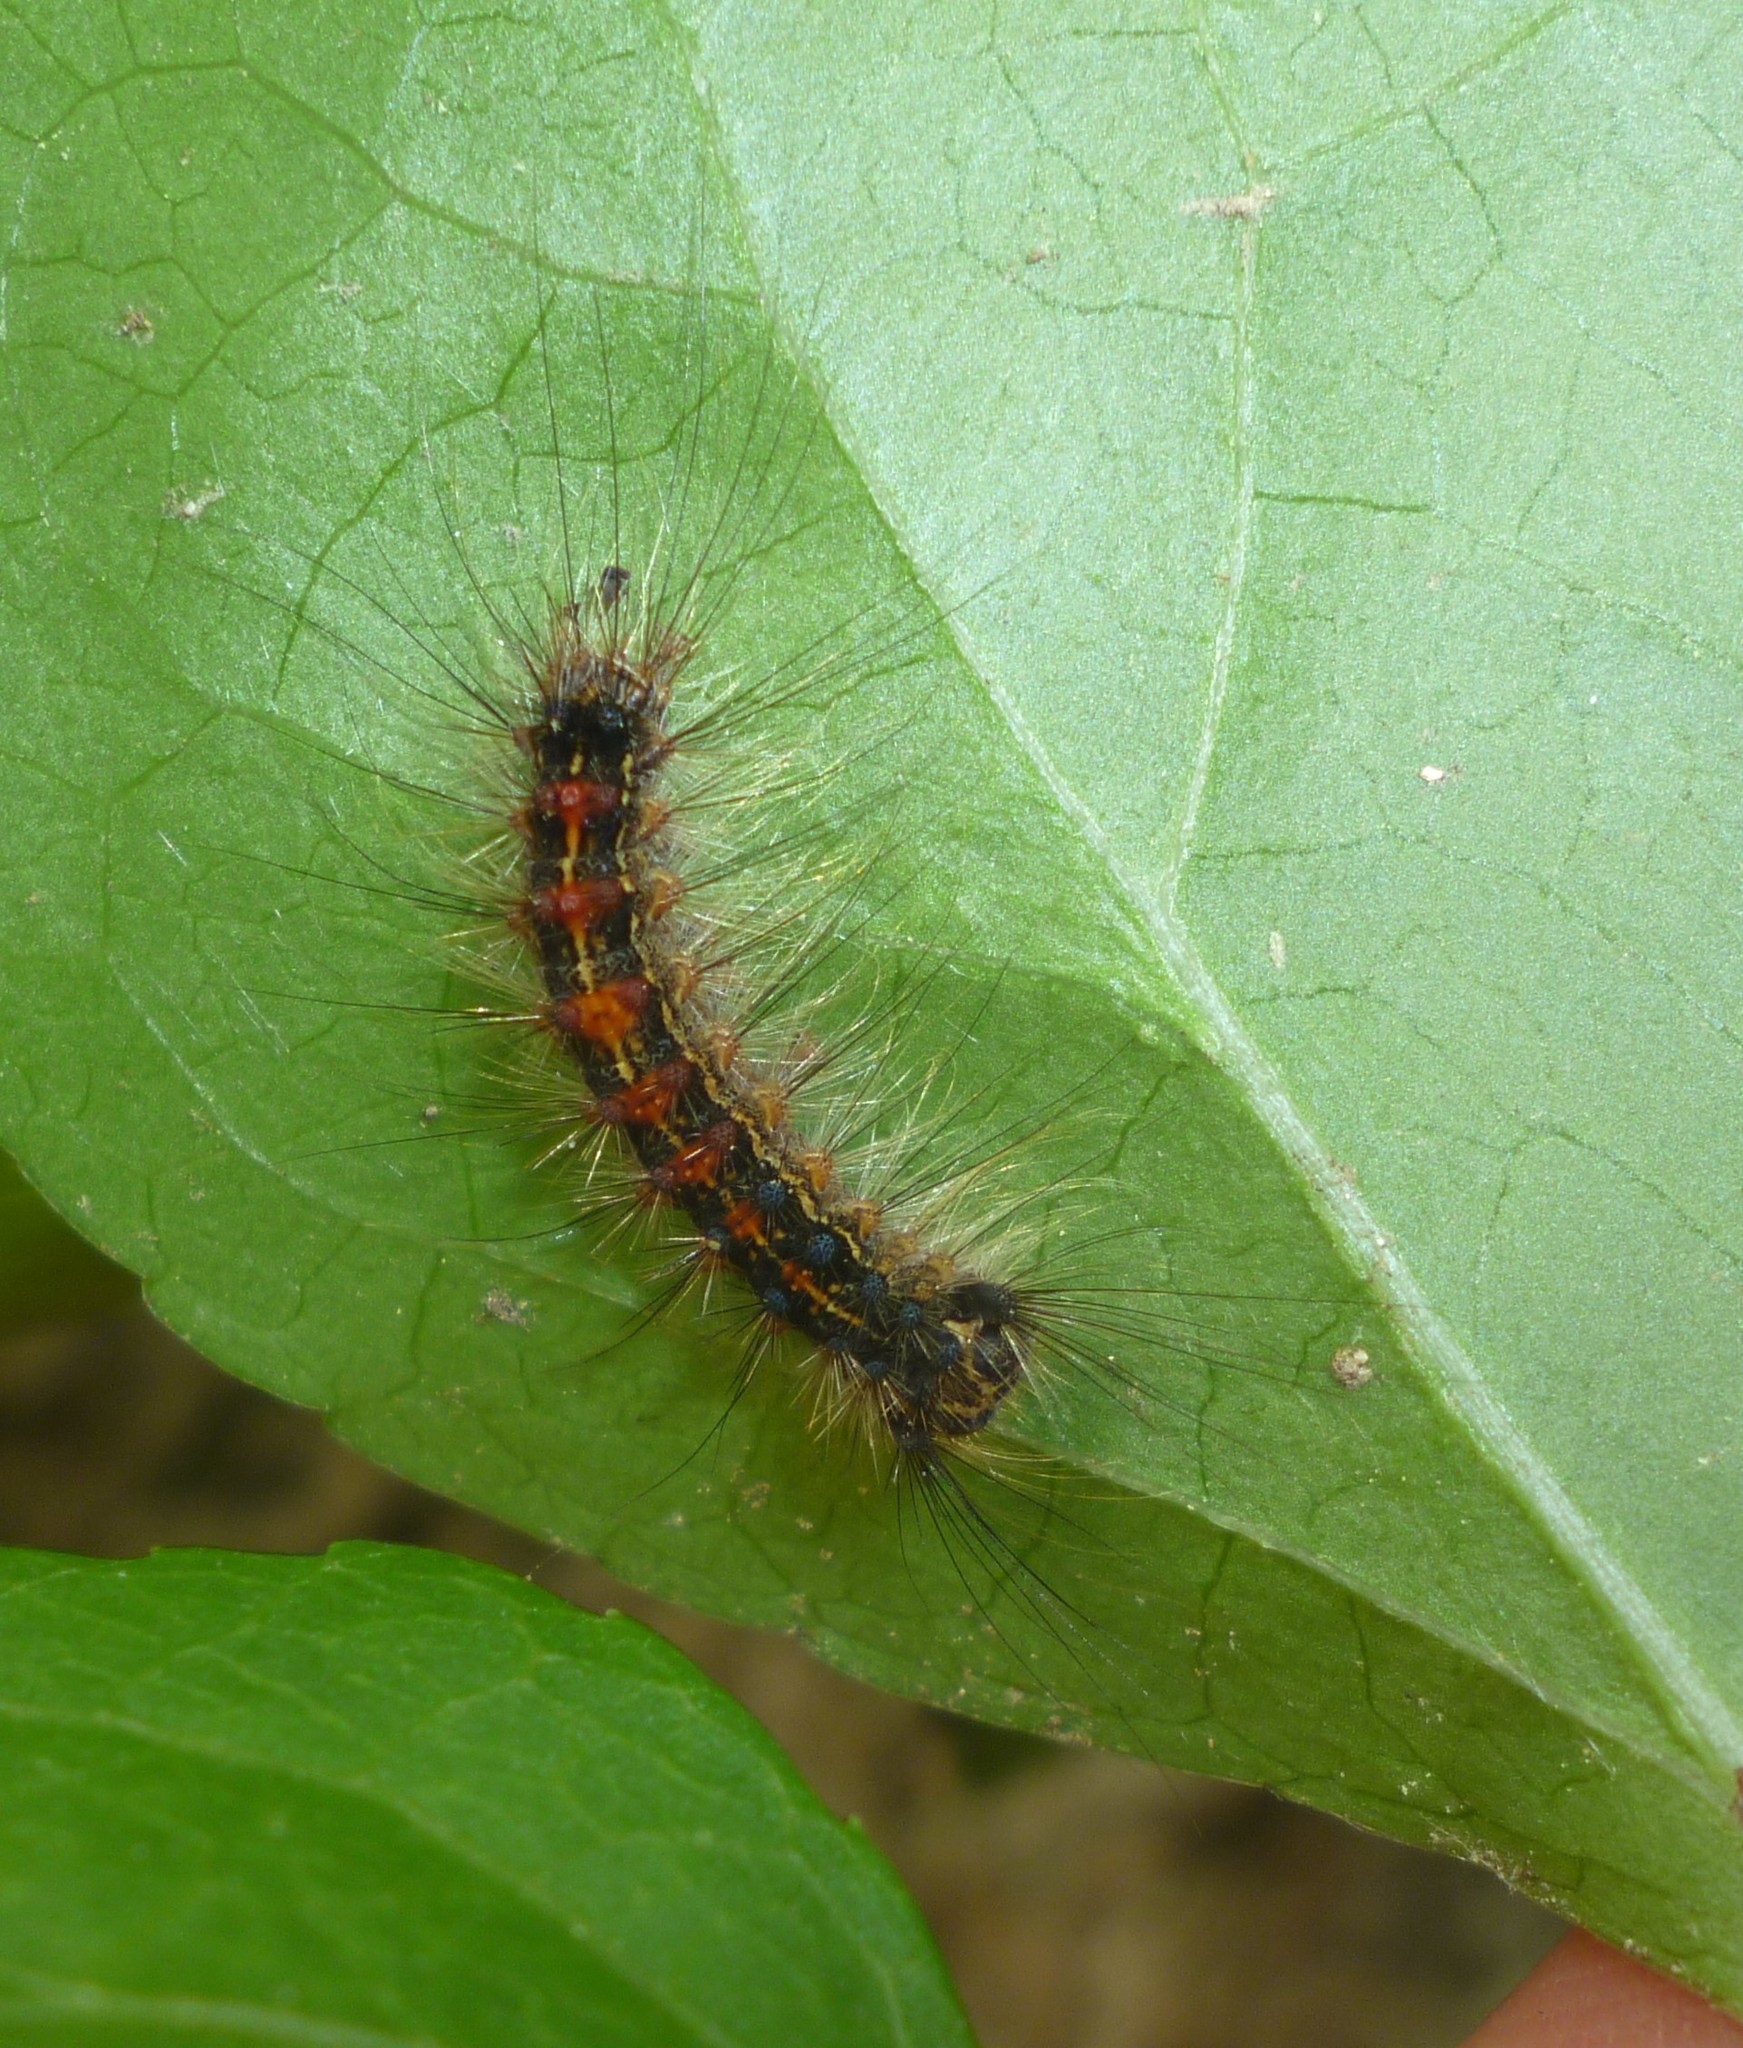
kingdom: Animalia
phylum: Arthropoda
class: Insecta
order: Lepidoptera
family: Erebidae
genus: Lymantria
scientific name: Lymantria dispar
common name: Gypsy moth
